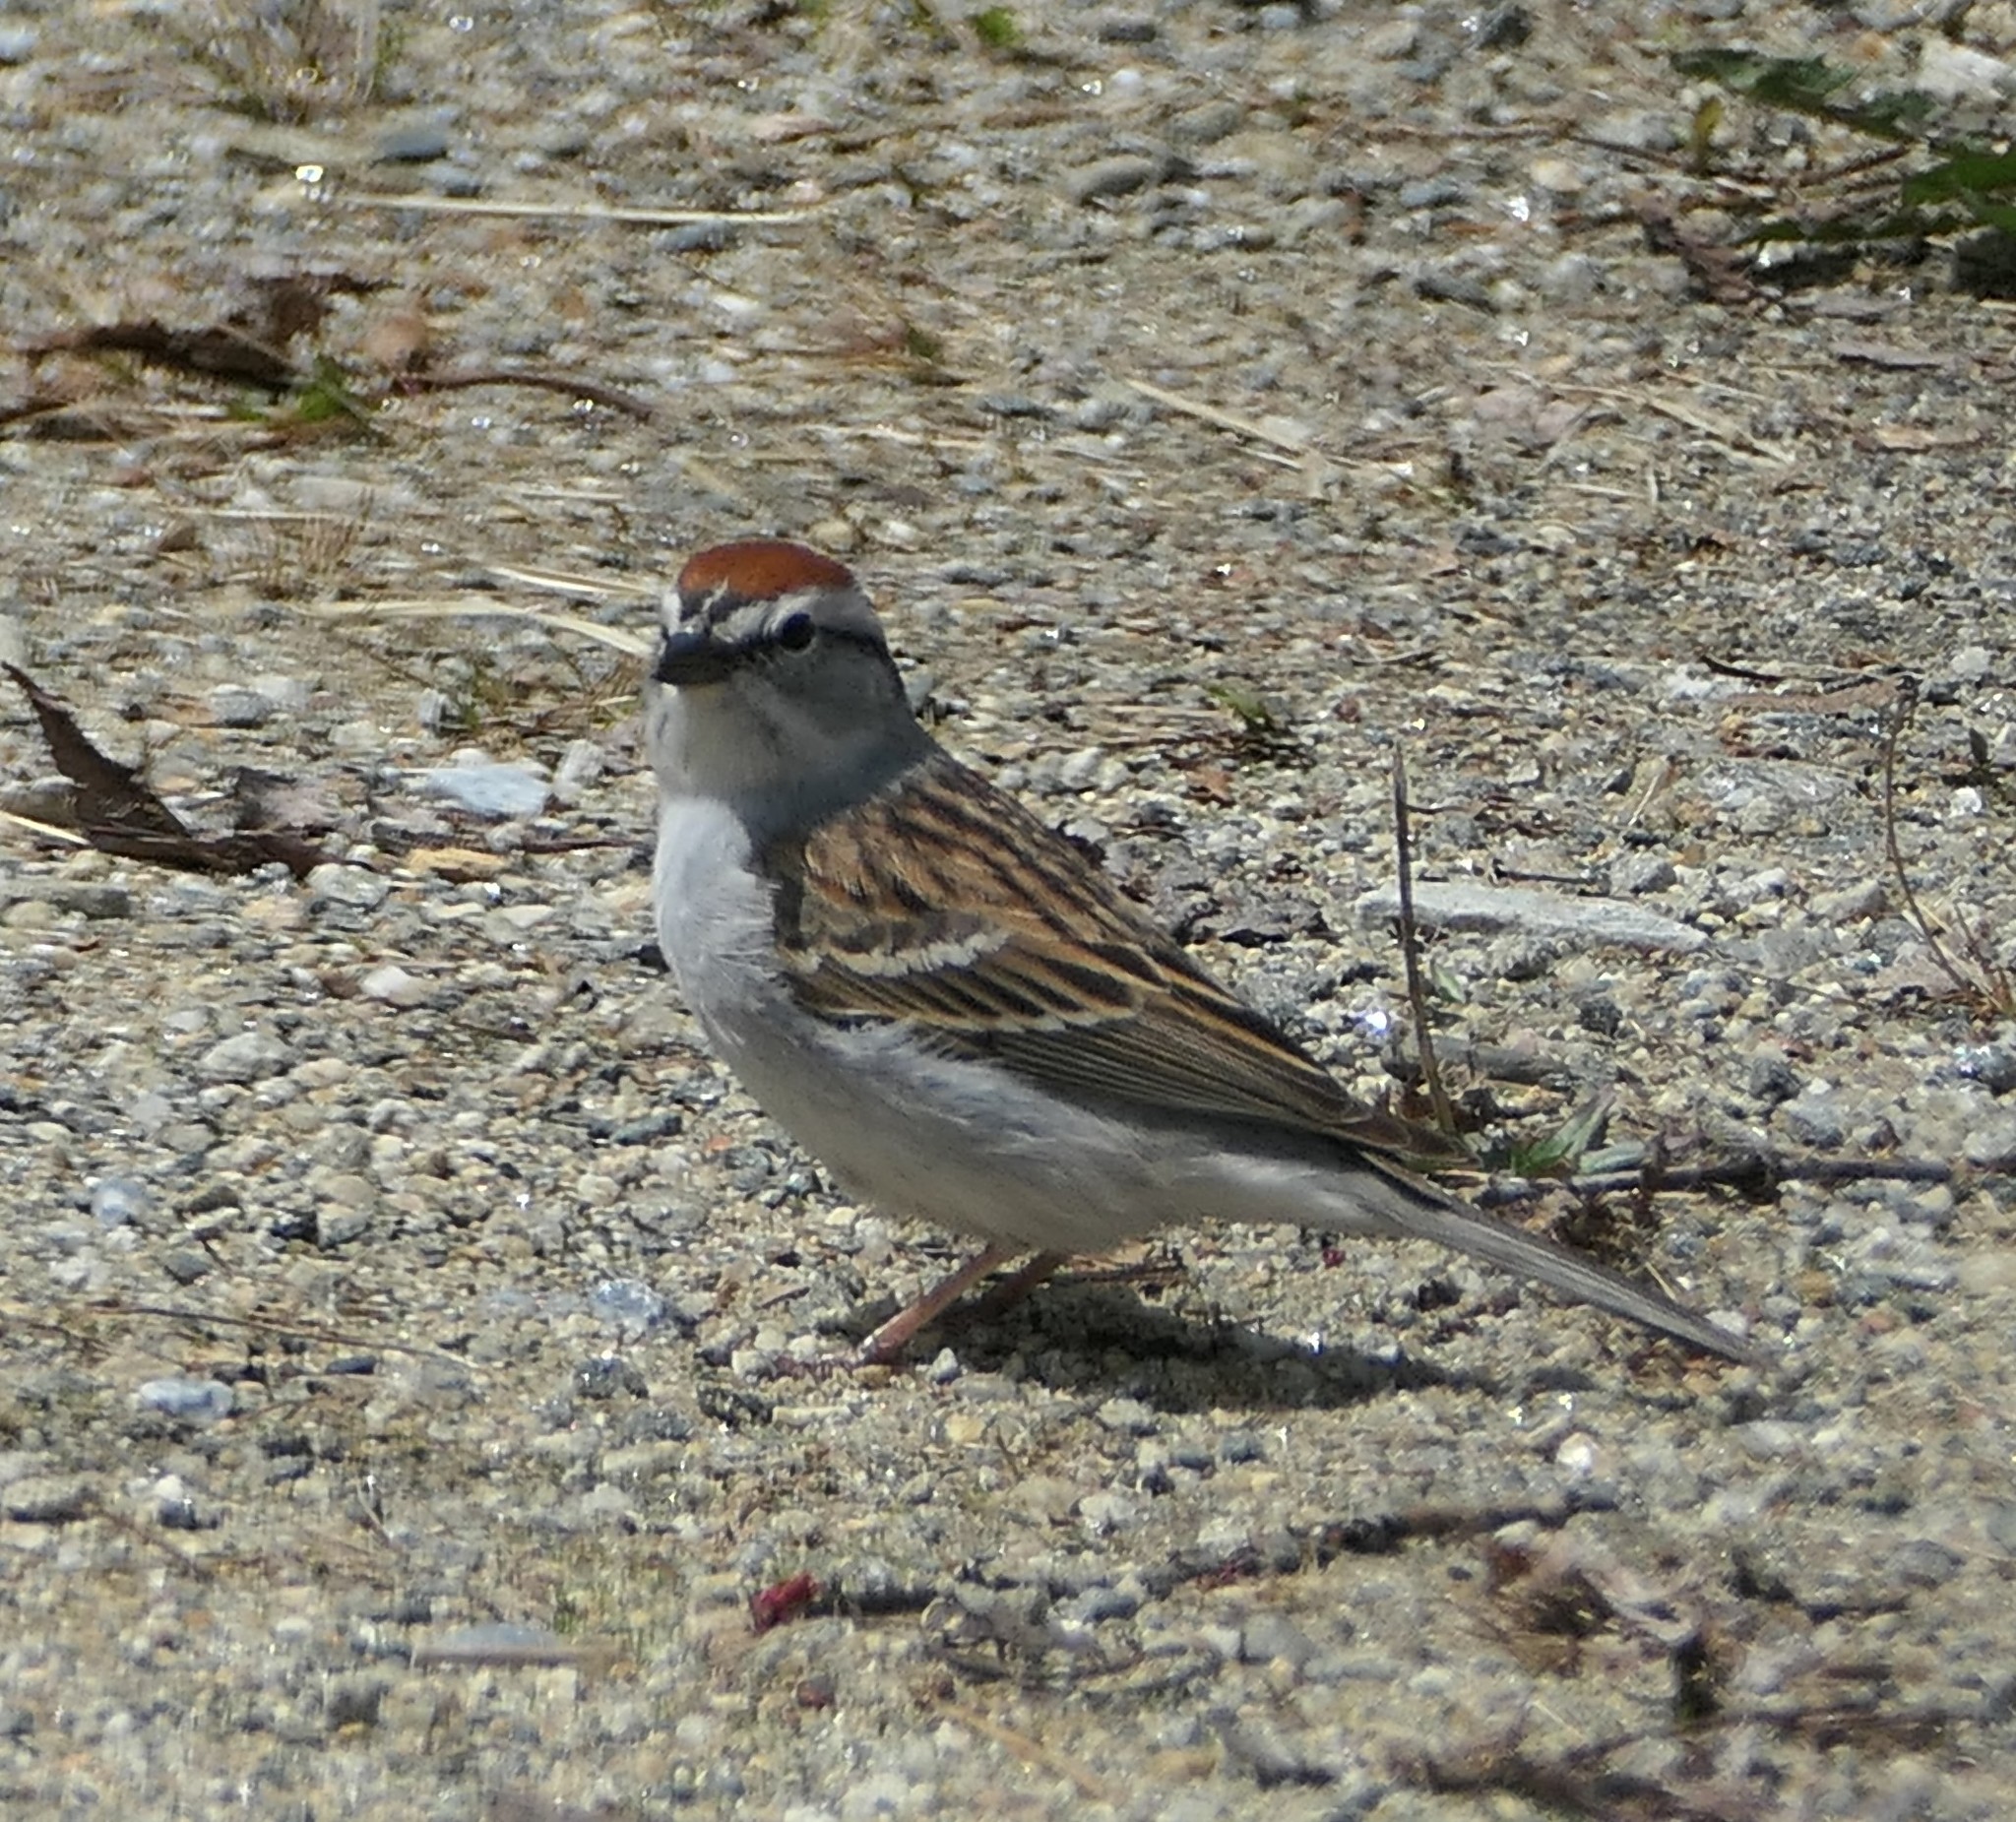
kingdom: Animalia
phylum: Chordata
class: Aves
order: Passeriformes
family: Passerellidae
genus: Spizella
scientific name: Spizella passerina
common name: Chipping sparrow
